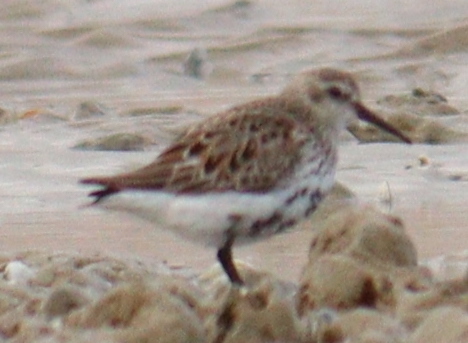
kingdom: Animalia
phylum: Chordata
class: Aves
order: Charadriiformes
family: Scolopacidae
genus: Calidris
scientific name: Calidris alpina
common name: Dunlin
